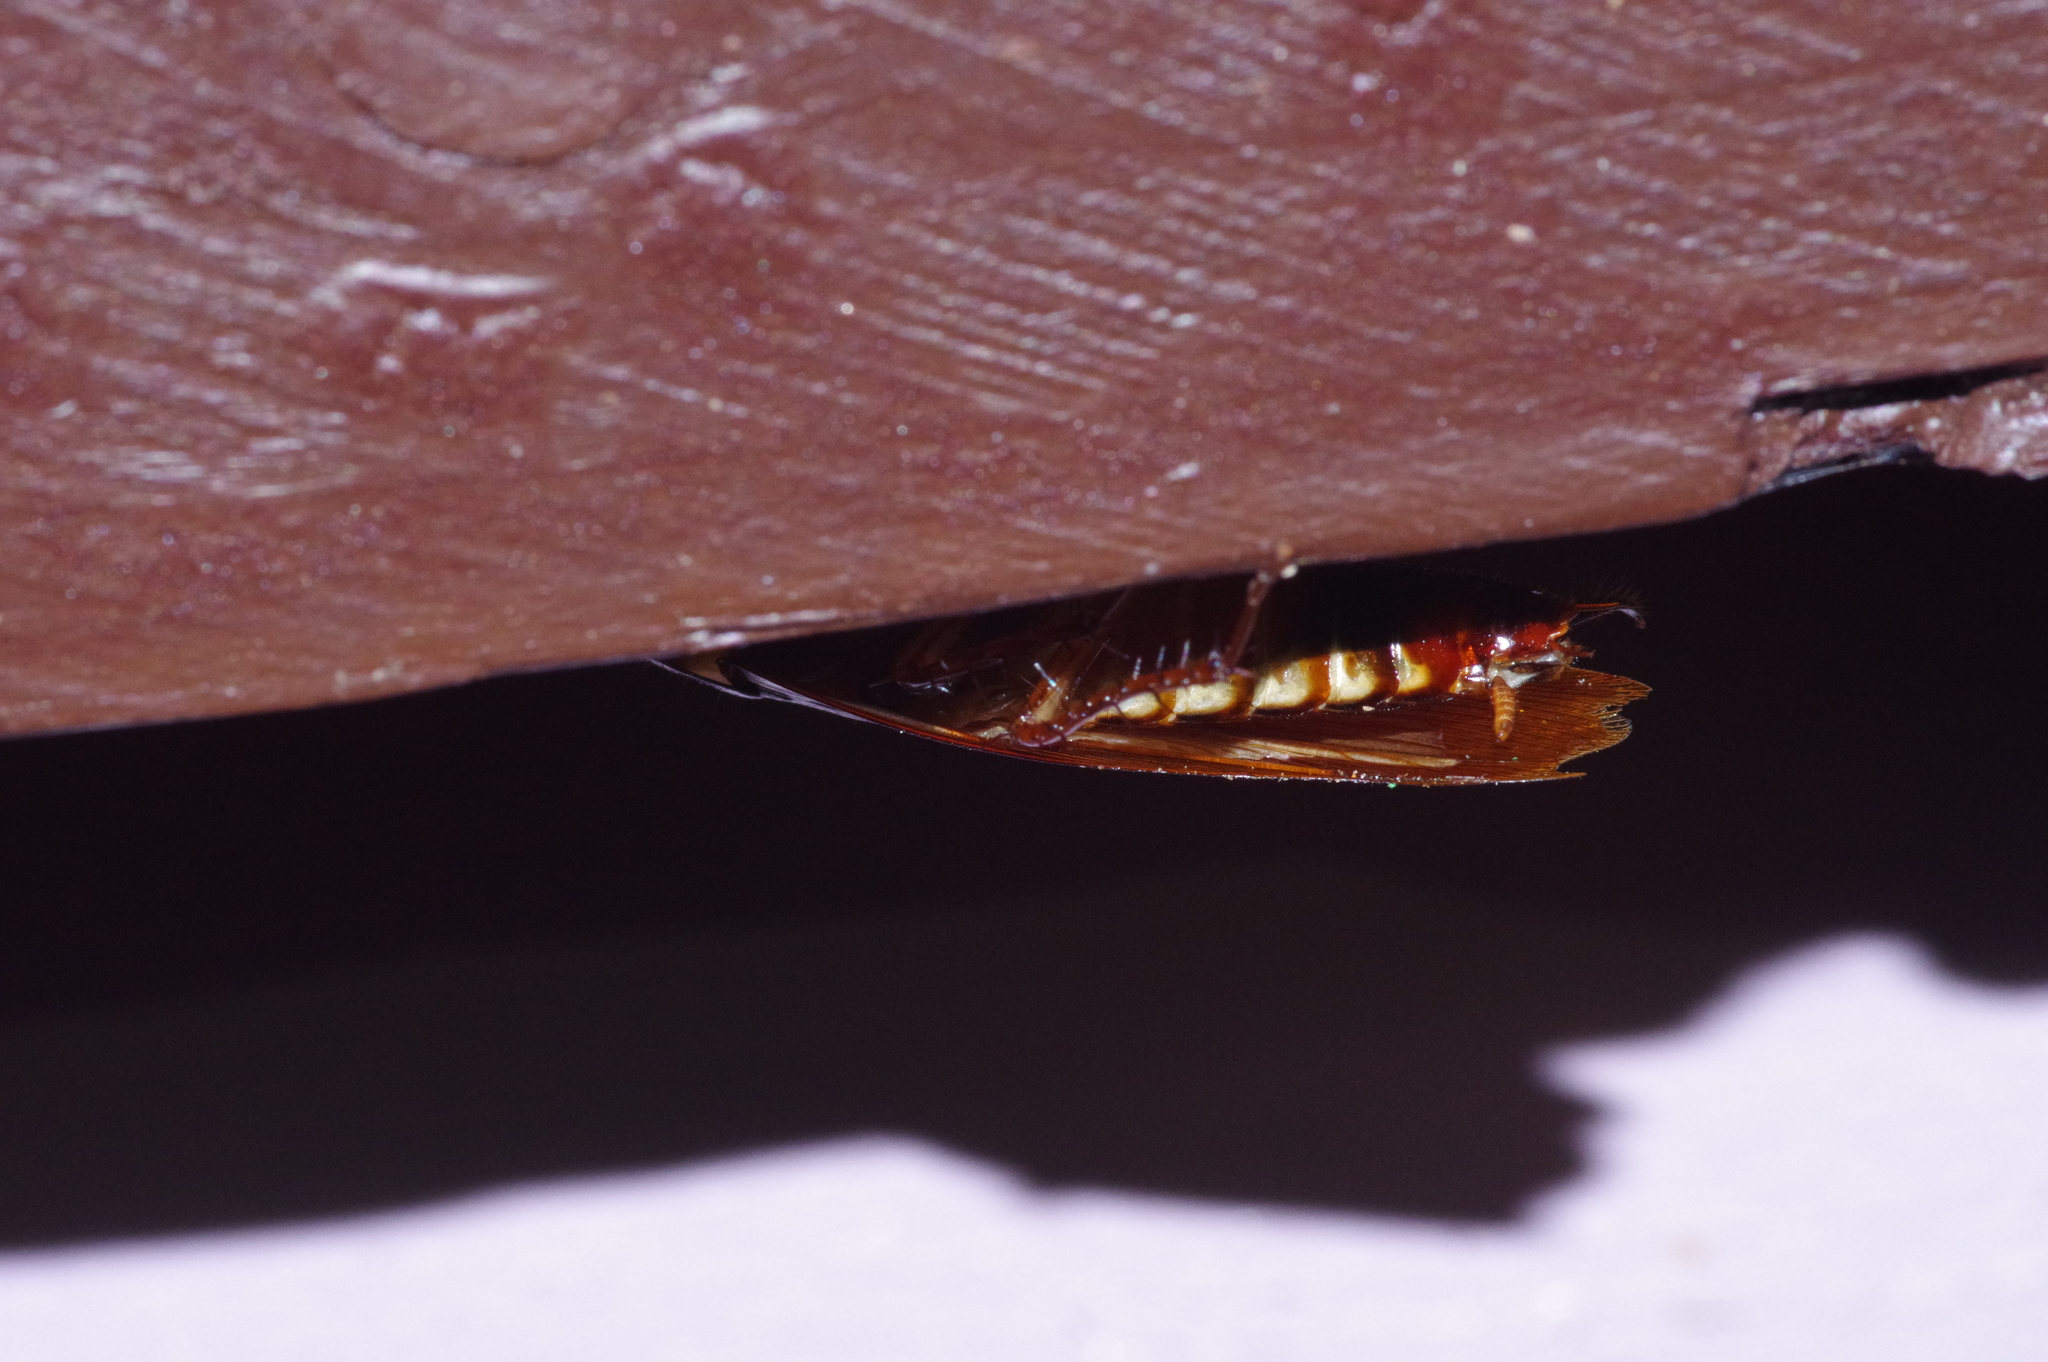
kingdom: Animalia
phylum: Arthropoda
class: Insecta
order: Blattodea
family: Blattidae
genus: Periplaneta
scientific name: Periplaneta australasiae
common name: Australian cockroach
